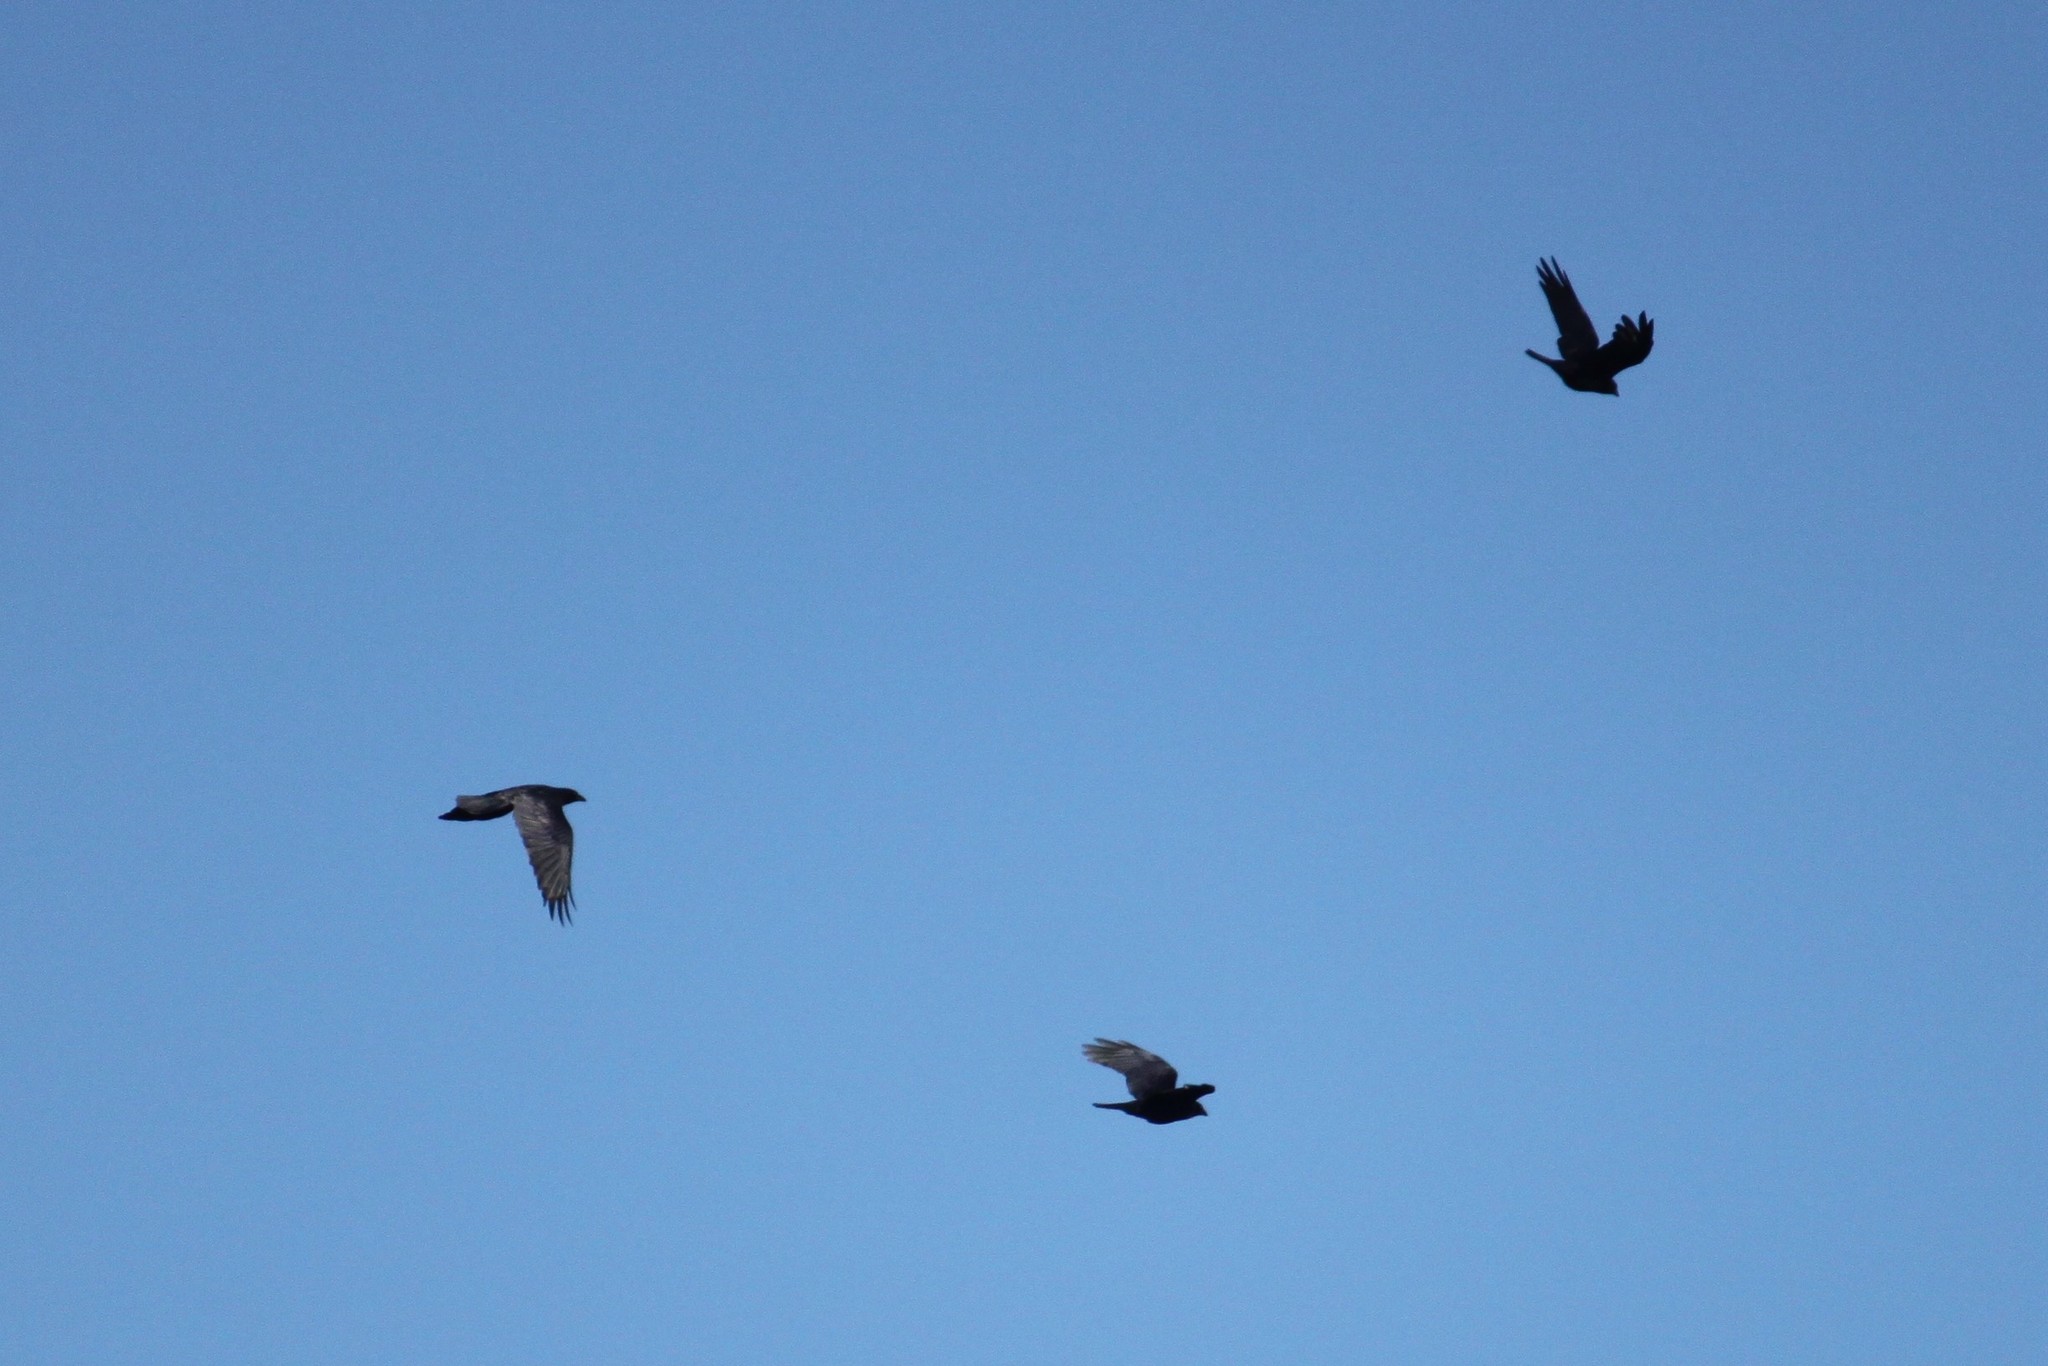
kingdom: Animalia
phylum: Chordata
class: Aves
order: Passeriformes
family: Corvidae
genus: Corvus
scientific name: Corvus ossifragus
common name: Fish crow
